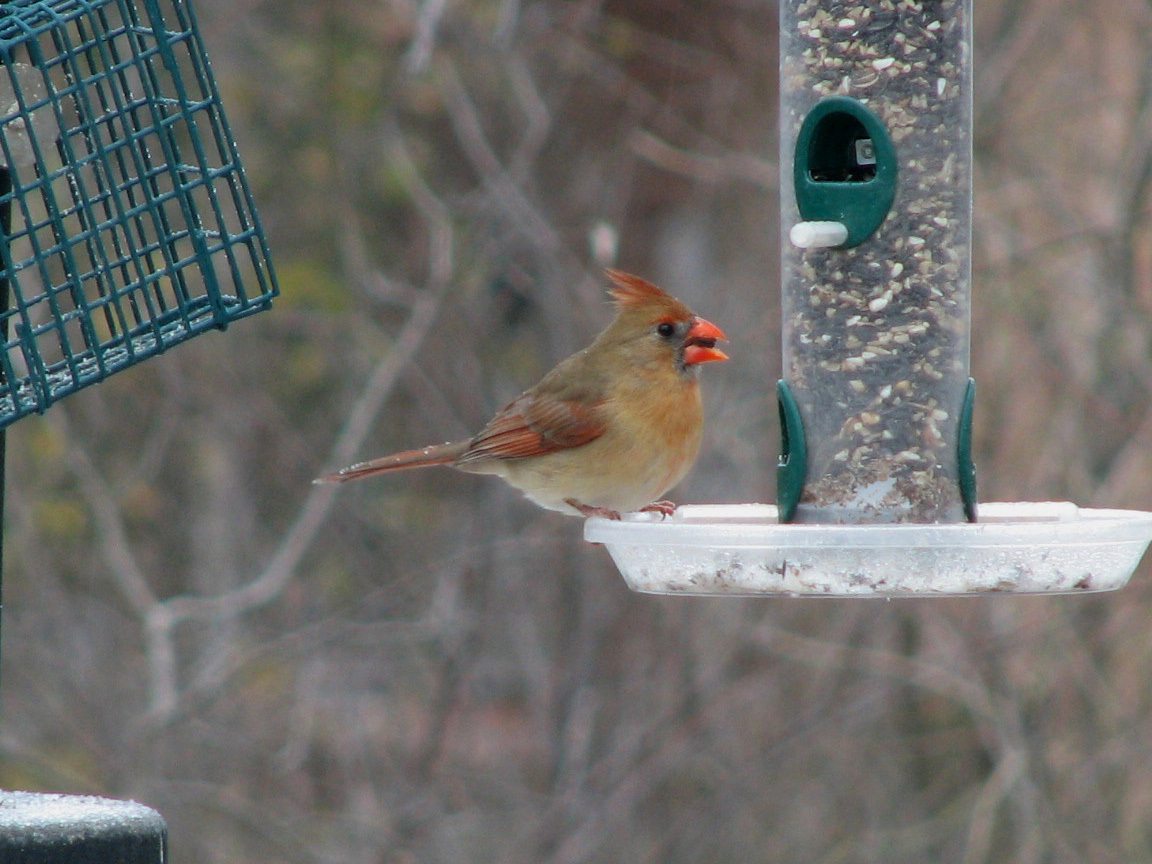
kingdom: Animalia
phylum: Chordata
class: Aves
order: Passeriformes
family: Cardinalidae
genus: Cardinalis
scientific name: Cardinalis cardinalis
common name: Northern cardinal
